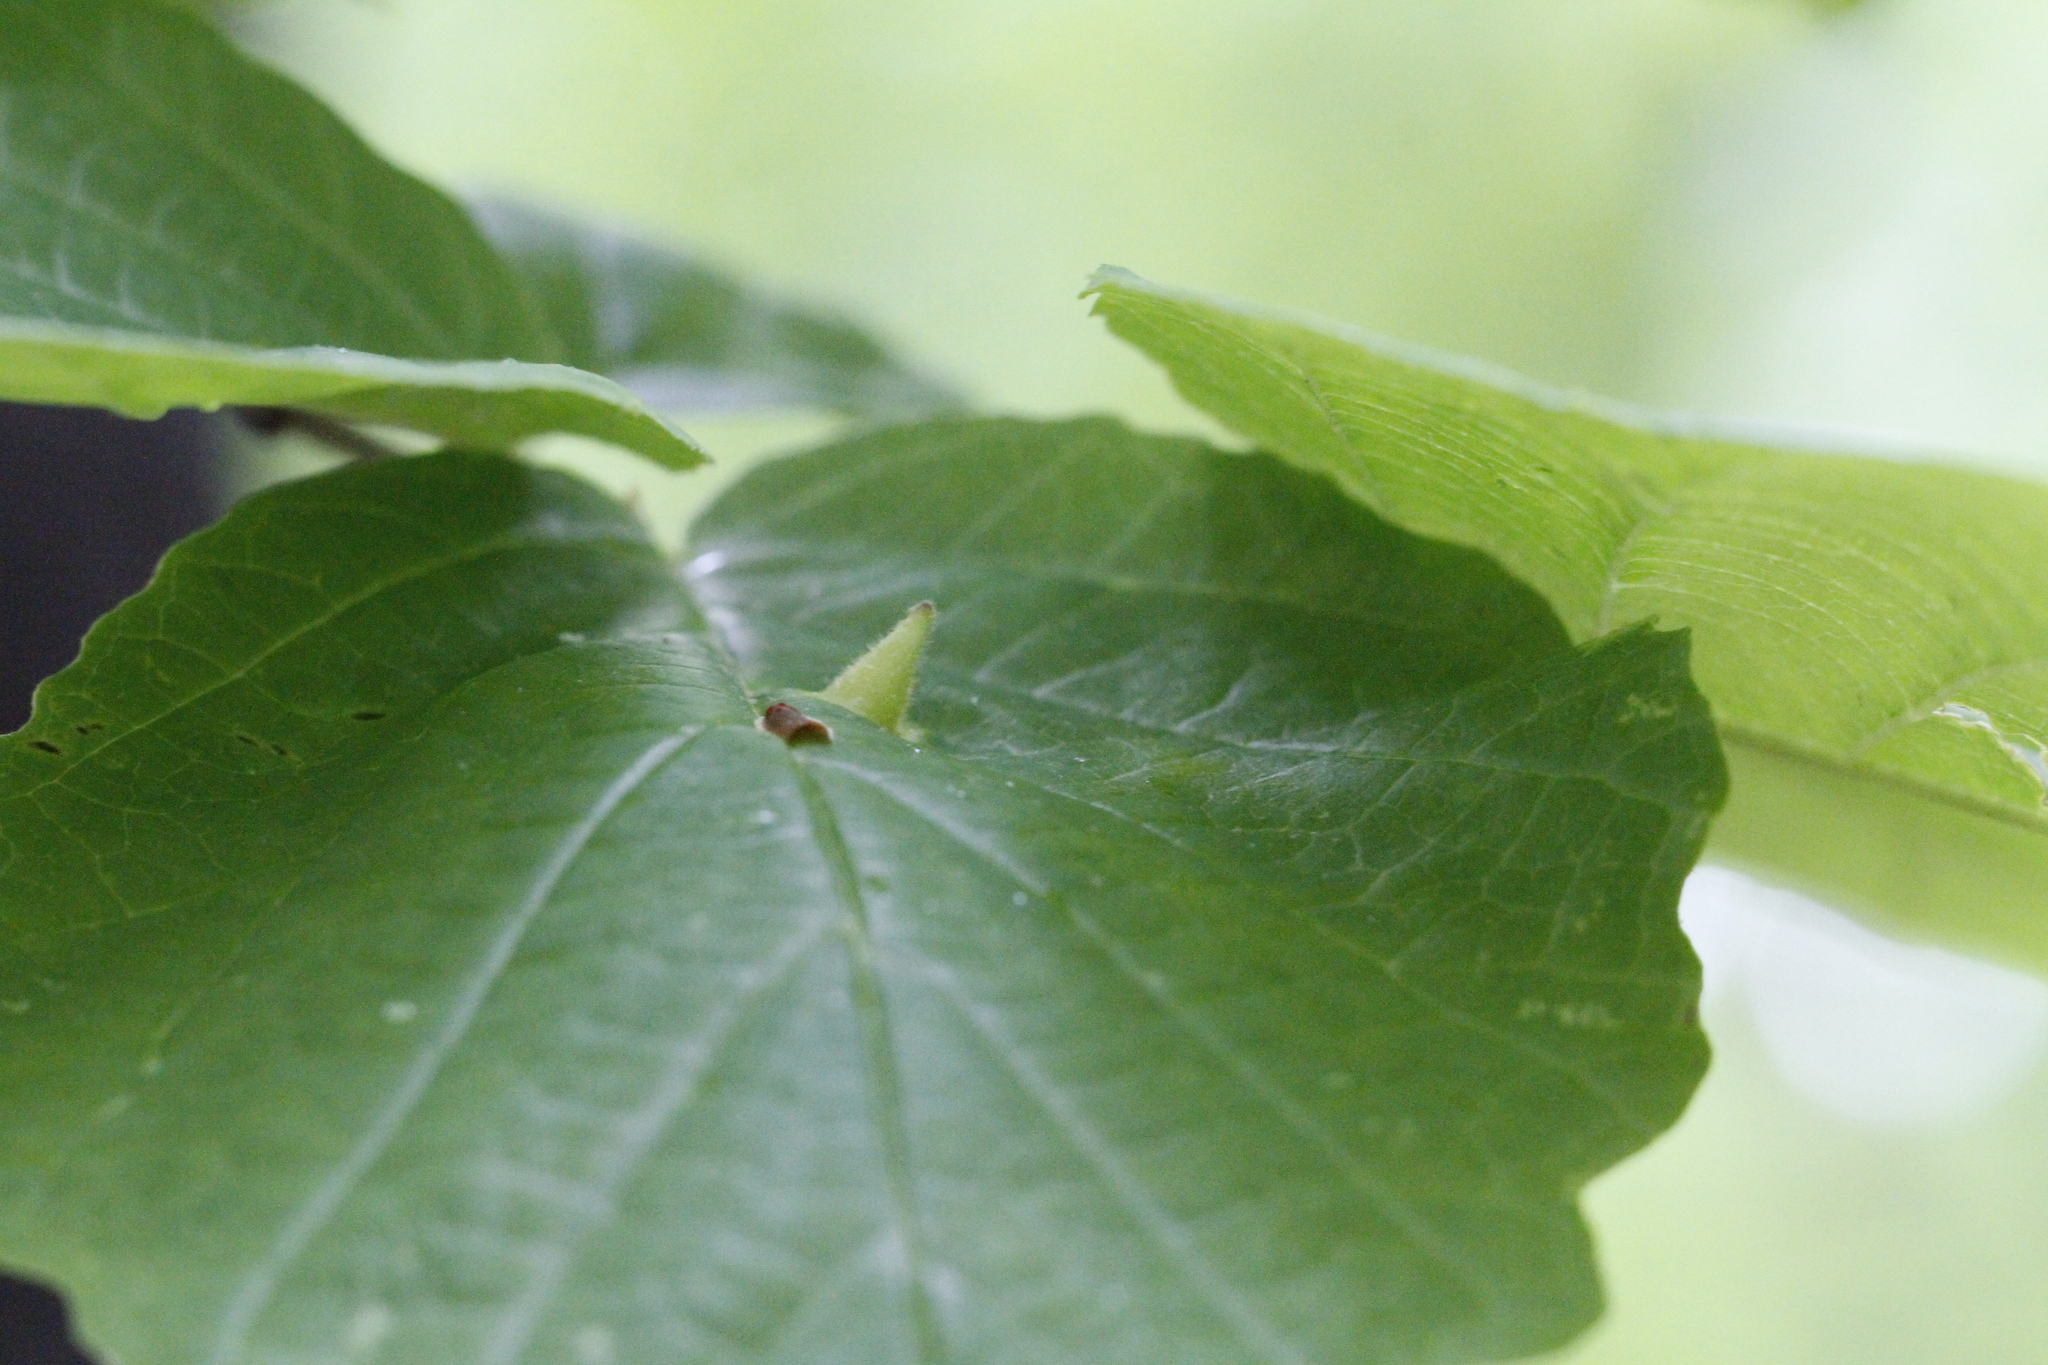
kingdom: Animalia
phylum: Arthropoda
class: Insecta
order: Hemiptera
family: Aphididae
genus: Hormaphis
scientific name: Hormaphis hamamelidis
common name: Witch-hazel cone gall aphid
